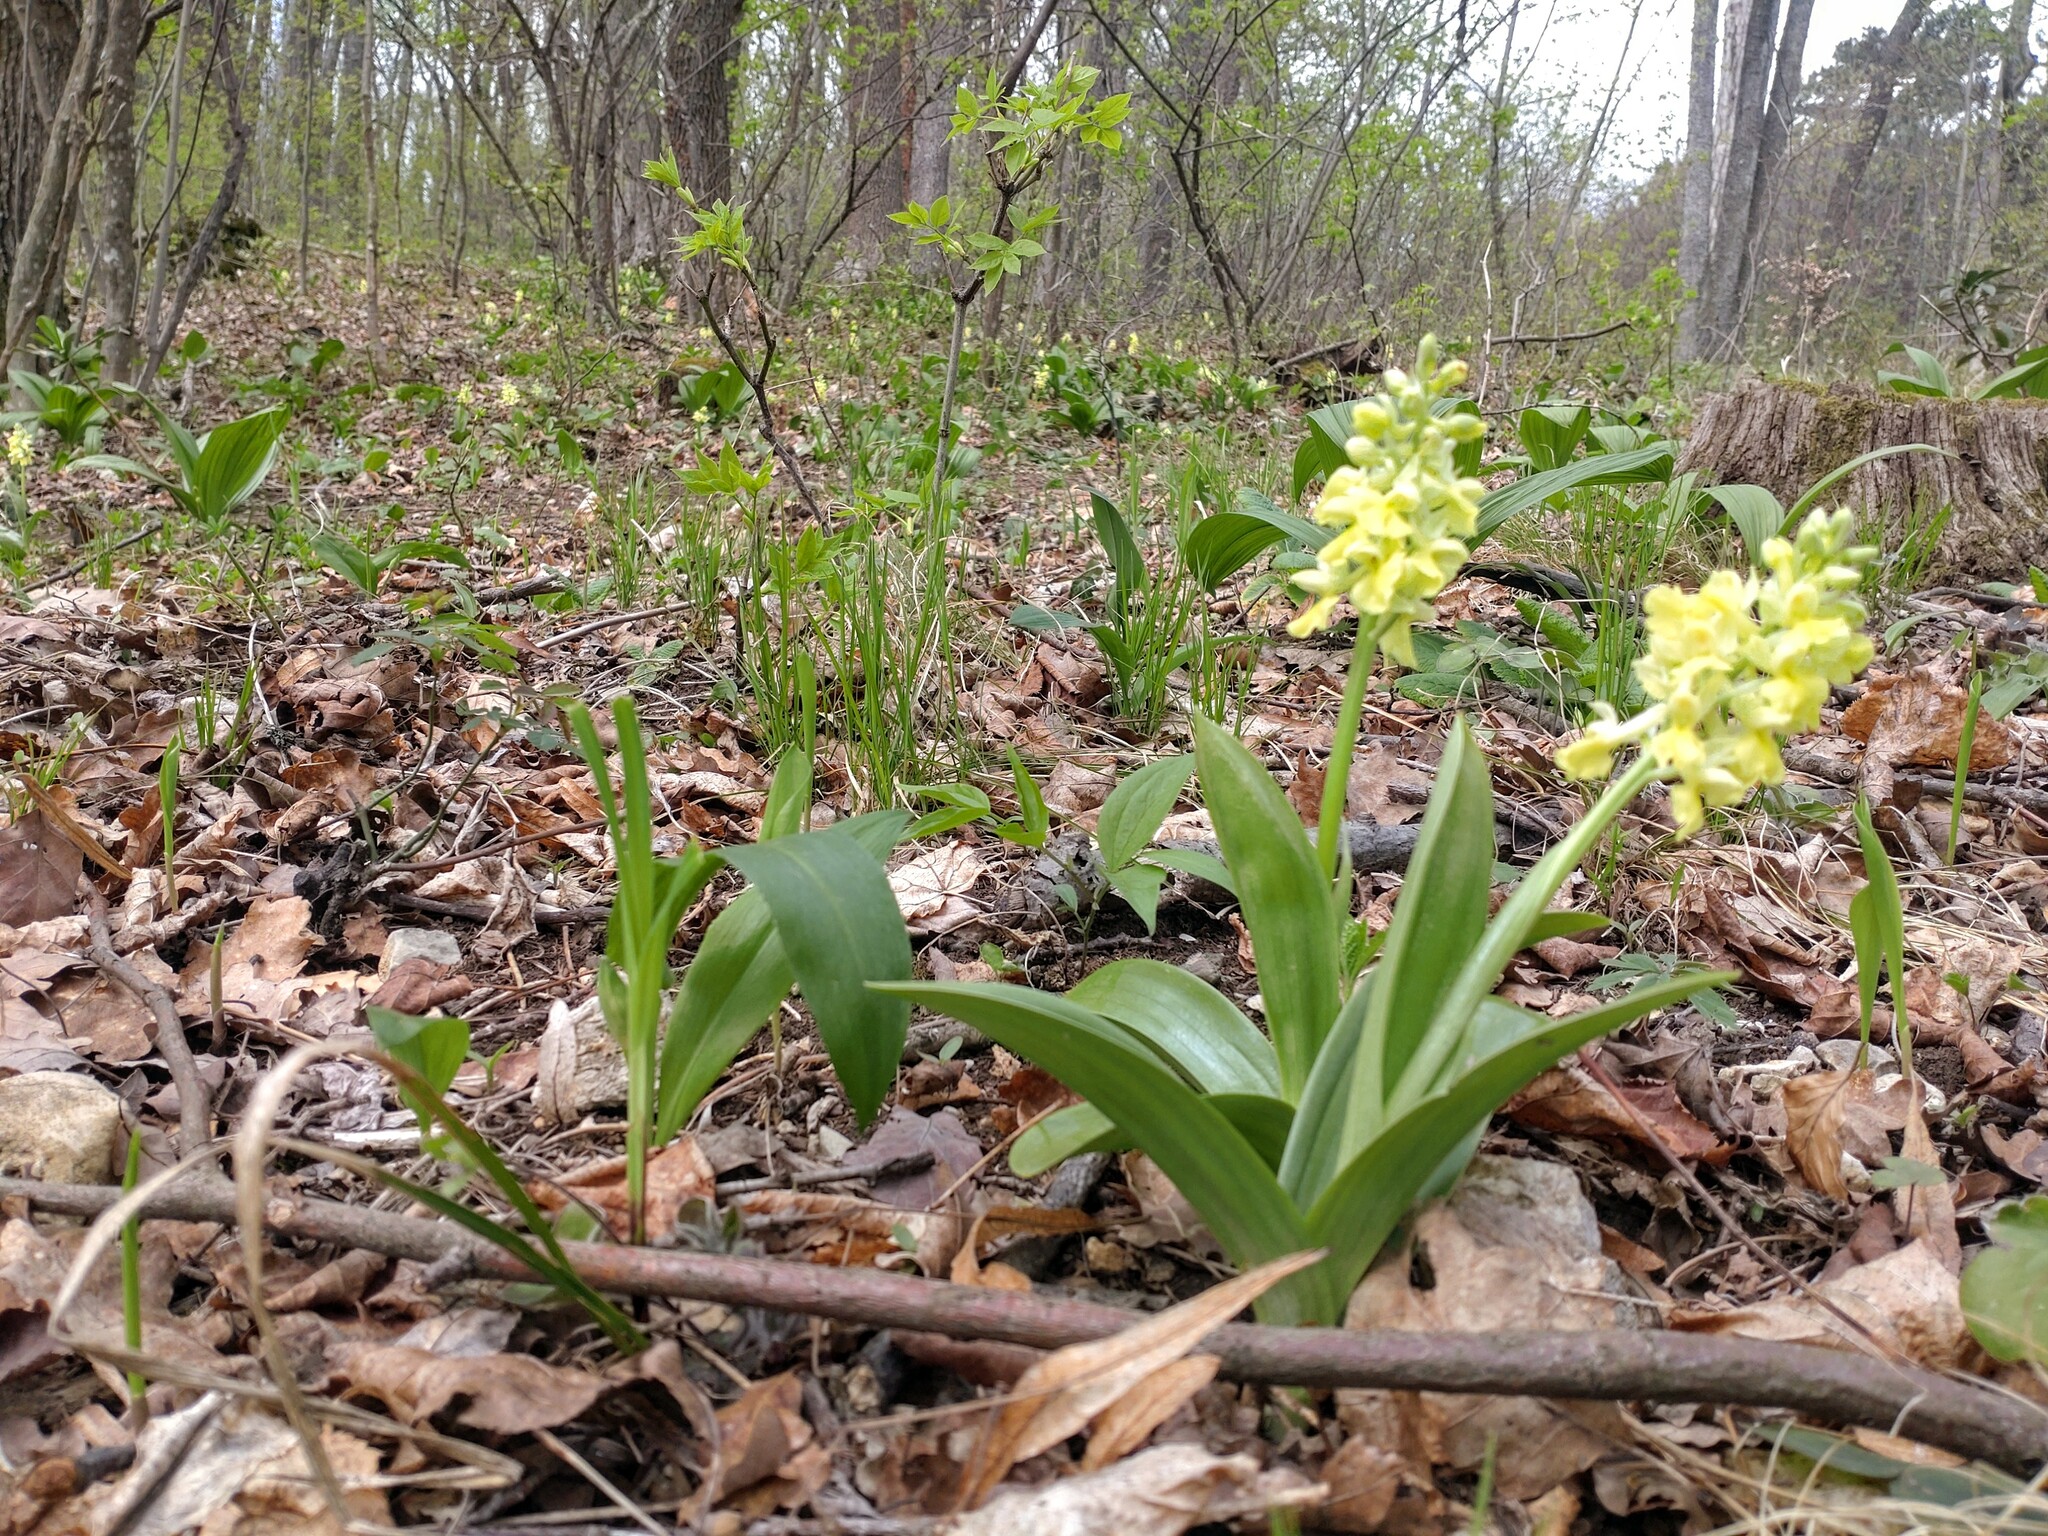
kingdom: Plantae
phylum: Tracheophyta
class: Liliopsida
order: Asparagales
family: Orchidaceae
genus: Orchis
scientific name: Orchis pallens
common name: Pale-flowered orchid
